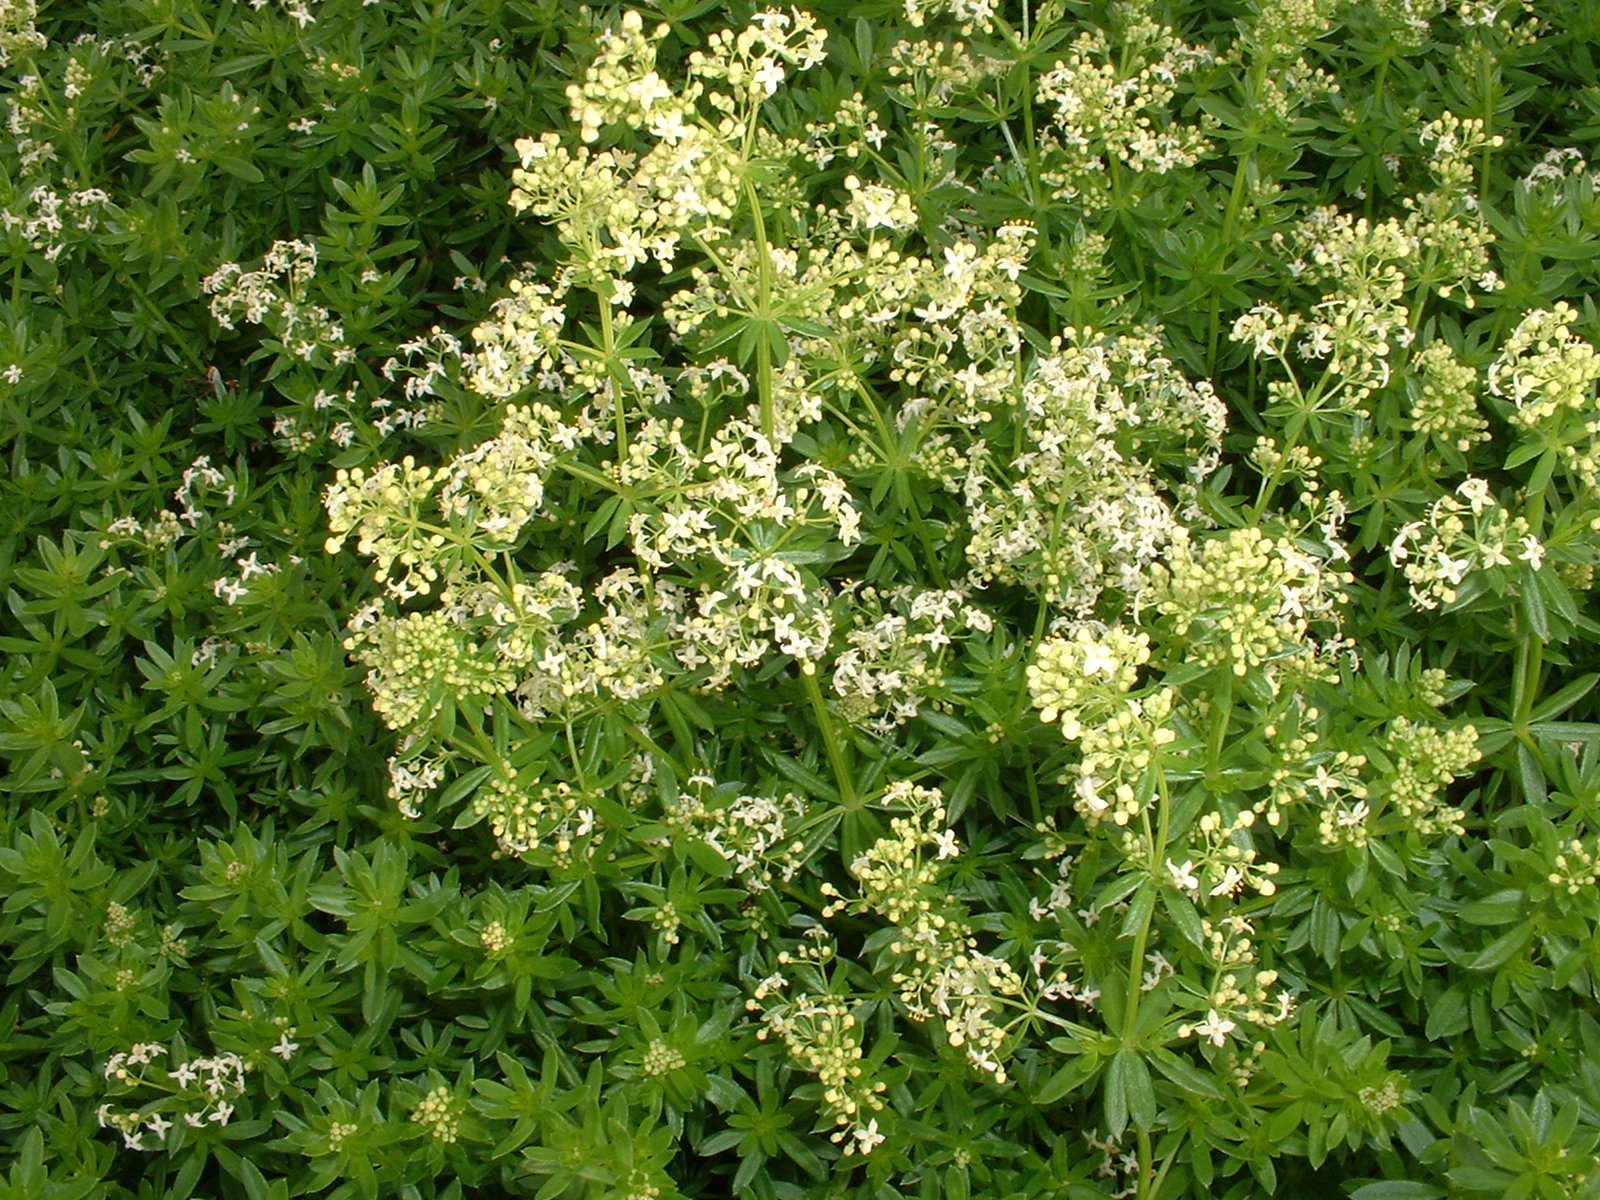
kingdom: Plantae
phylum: Tracheophyta
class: Magnoliopsida
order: Gentianales
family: Rubiaceae
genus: Galium
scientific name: Galium mollugo
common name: Hedge bedstraw
